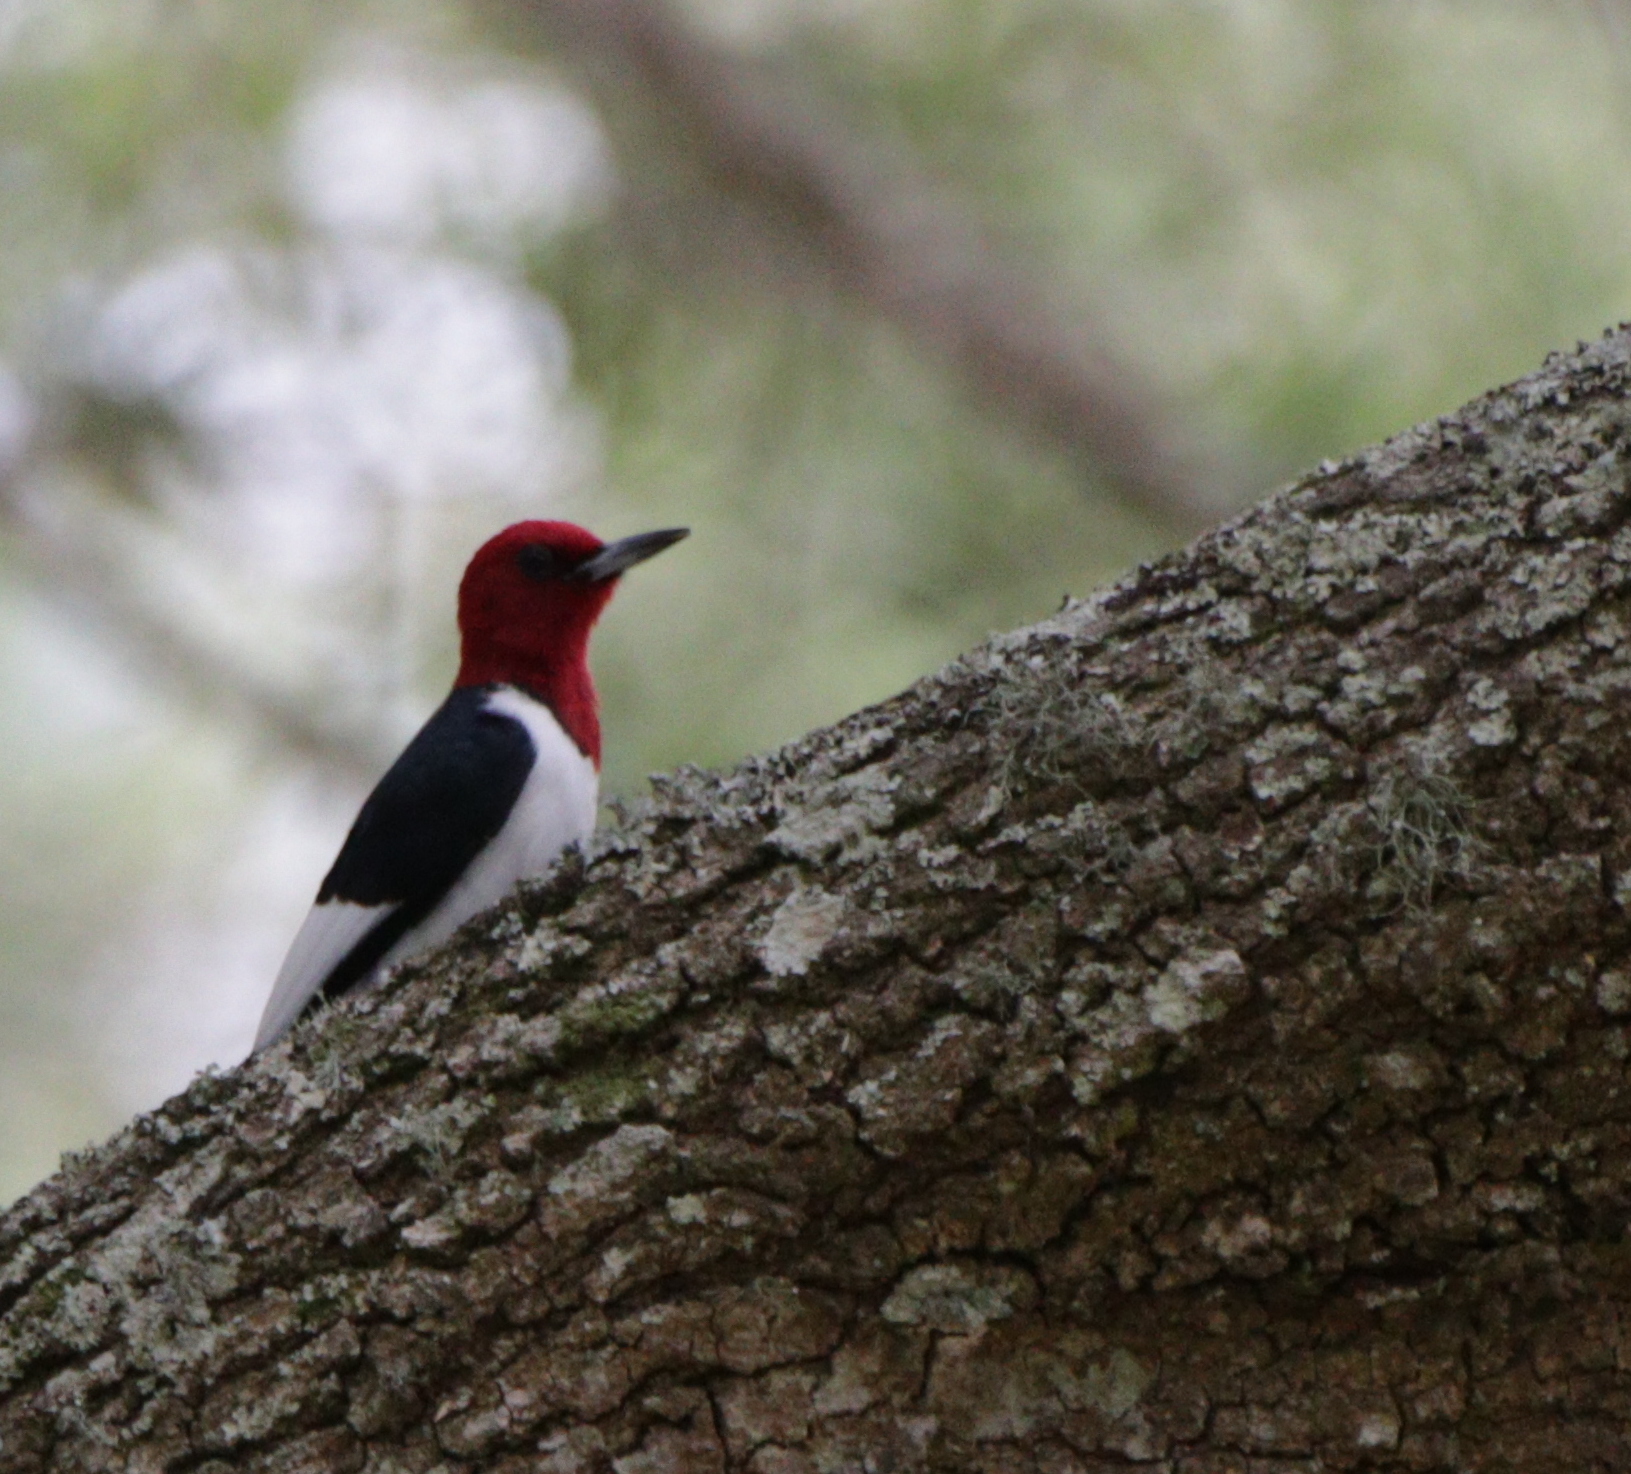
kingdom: Animalia
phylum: Chordata
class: Aves
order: Piciformes
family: Picidae
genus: Melanerpes
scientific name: Melanerpes erythrocephalus
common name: Red-headed woodpecker
